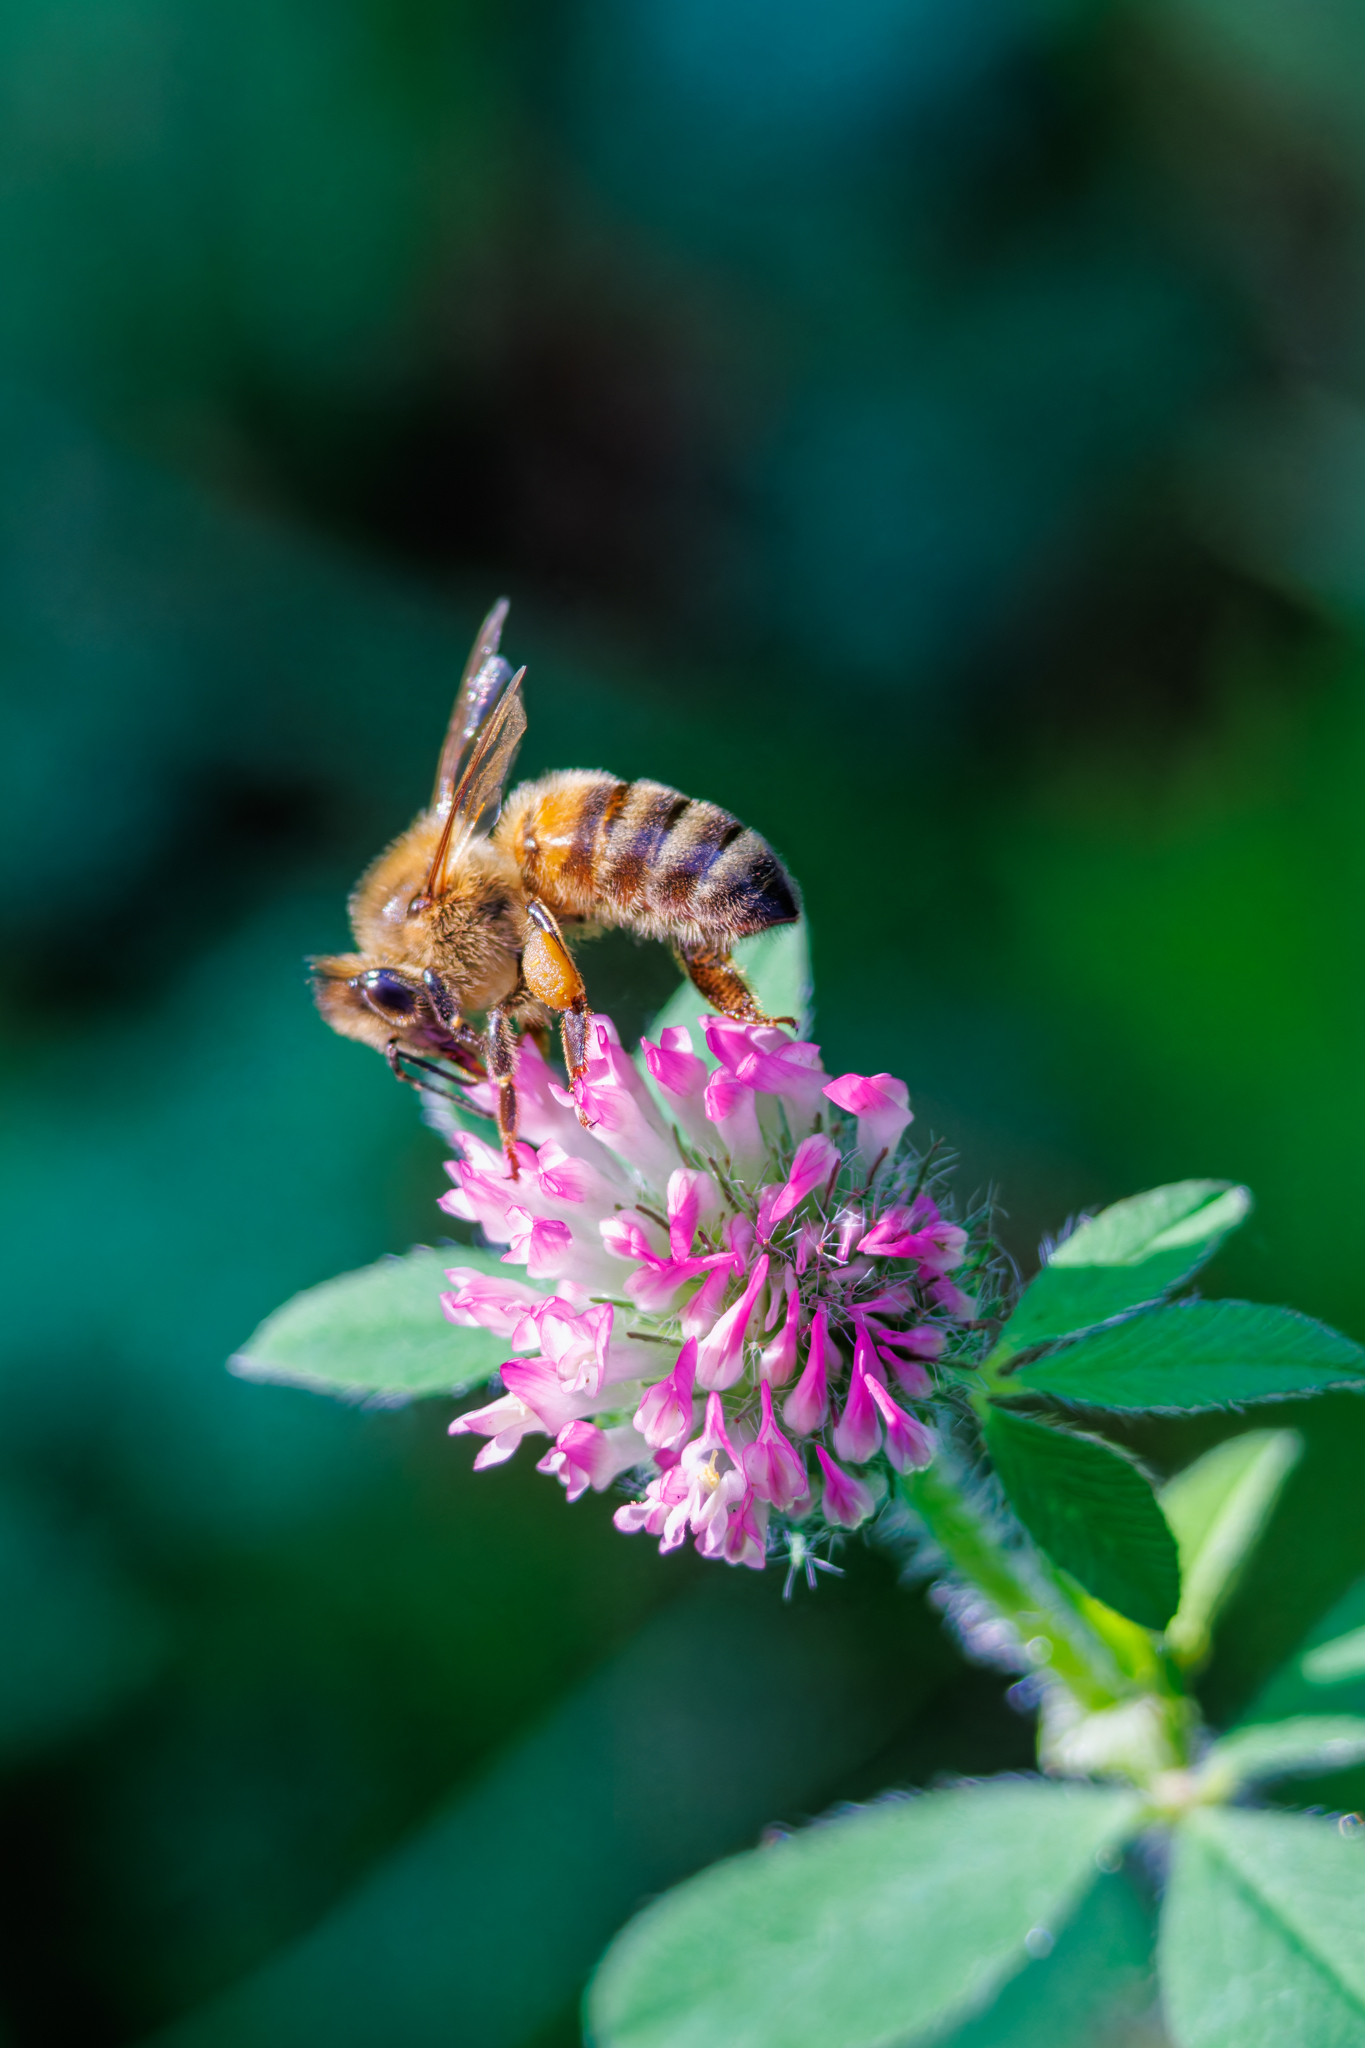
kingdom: Animalia
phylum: Arthropoda
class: Insecta
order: Hymenoptera
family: Apidae
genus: Apis
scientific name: Apis mellifera
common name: Honey bee
